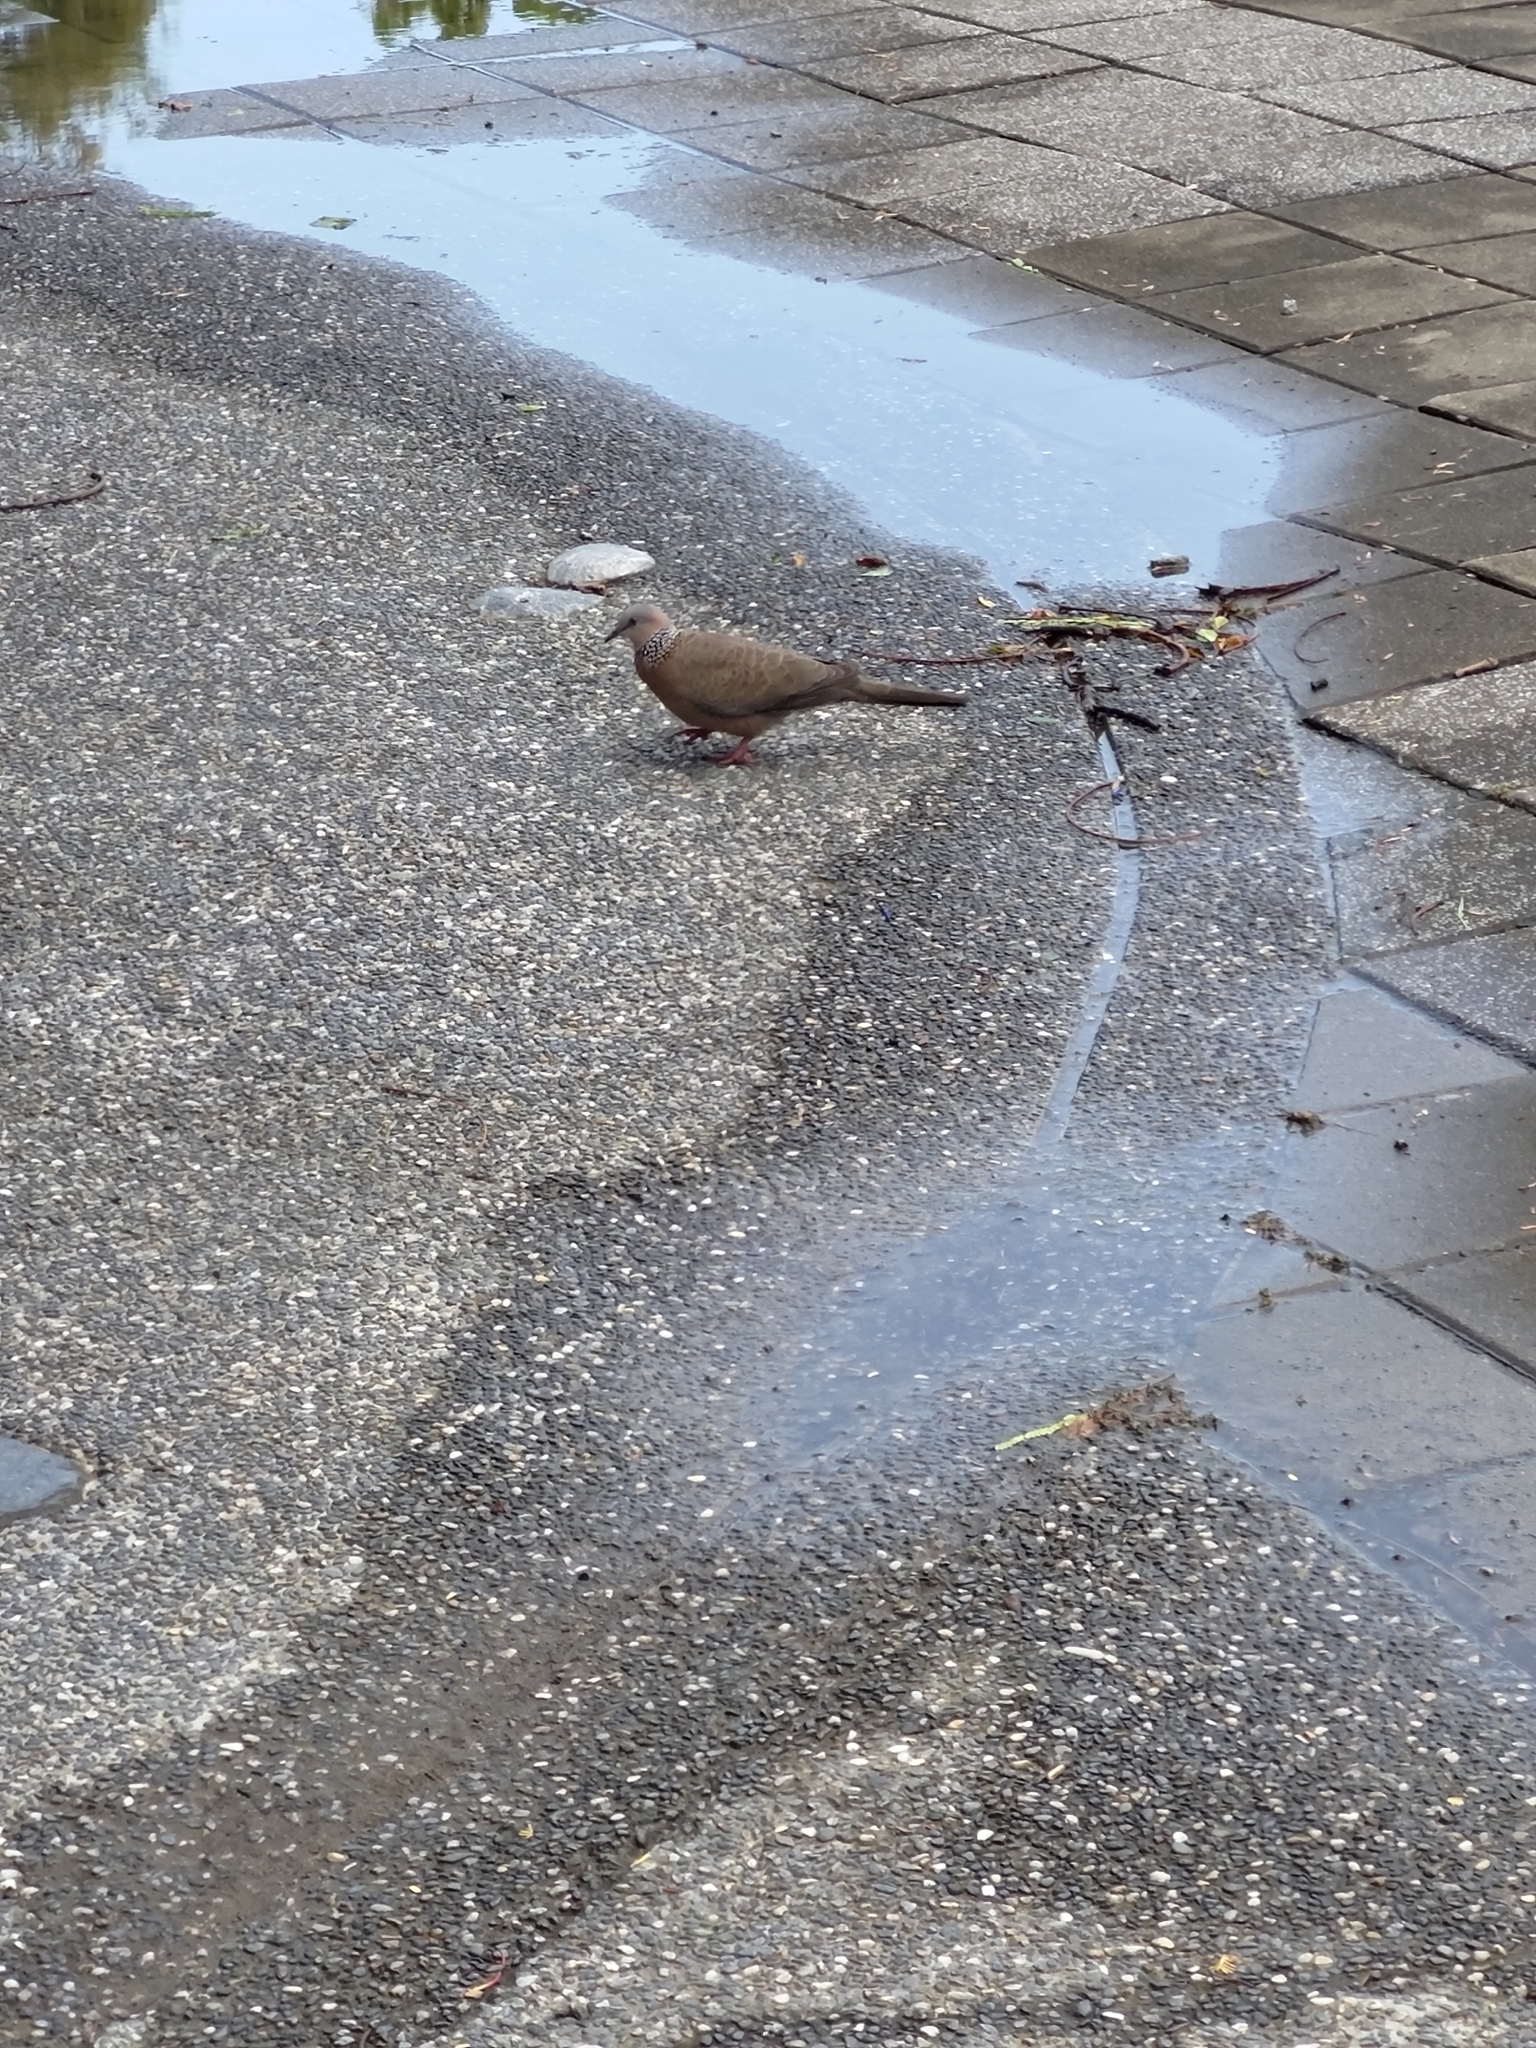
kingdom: Animalia
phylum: Chordata
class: Aves
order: Columbiformes
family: Columbidae
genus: Spilopelia
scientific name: Spilopelia chinensis
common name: Spotted dove
